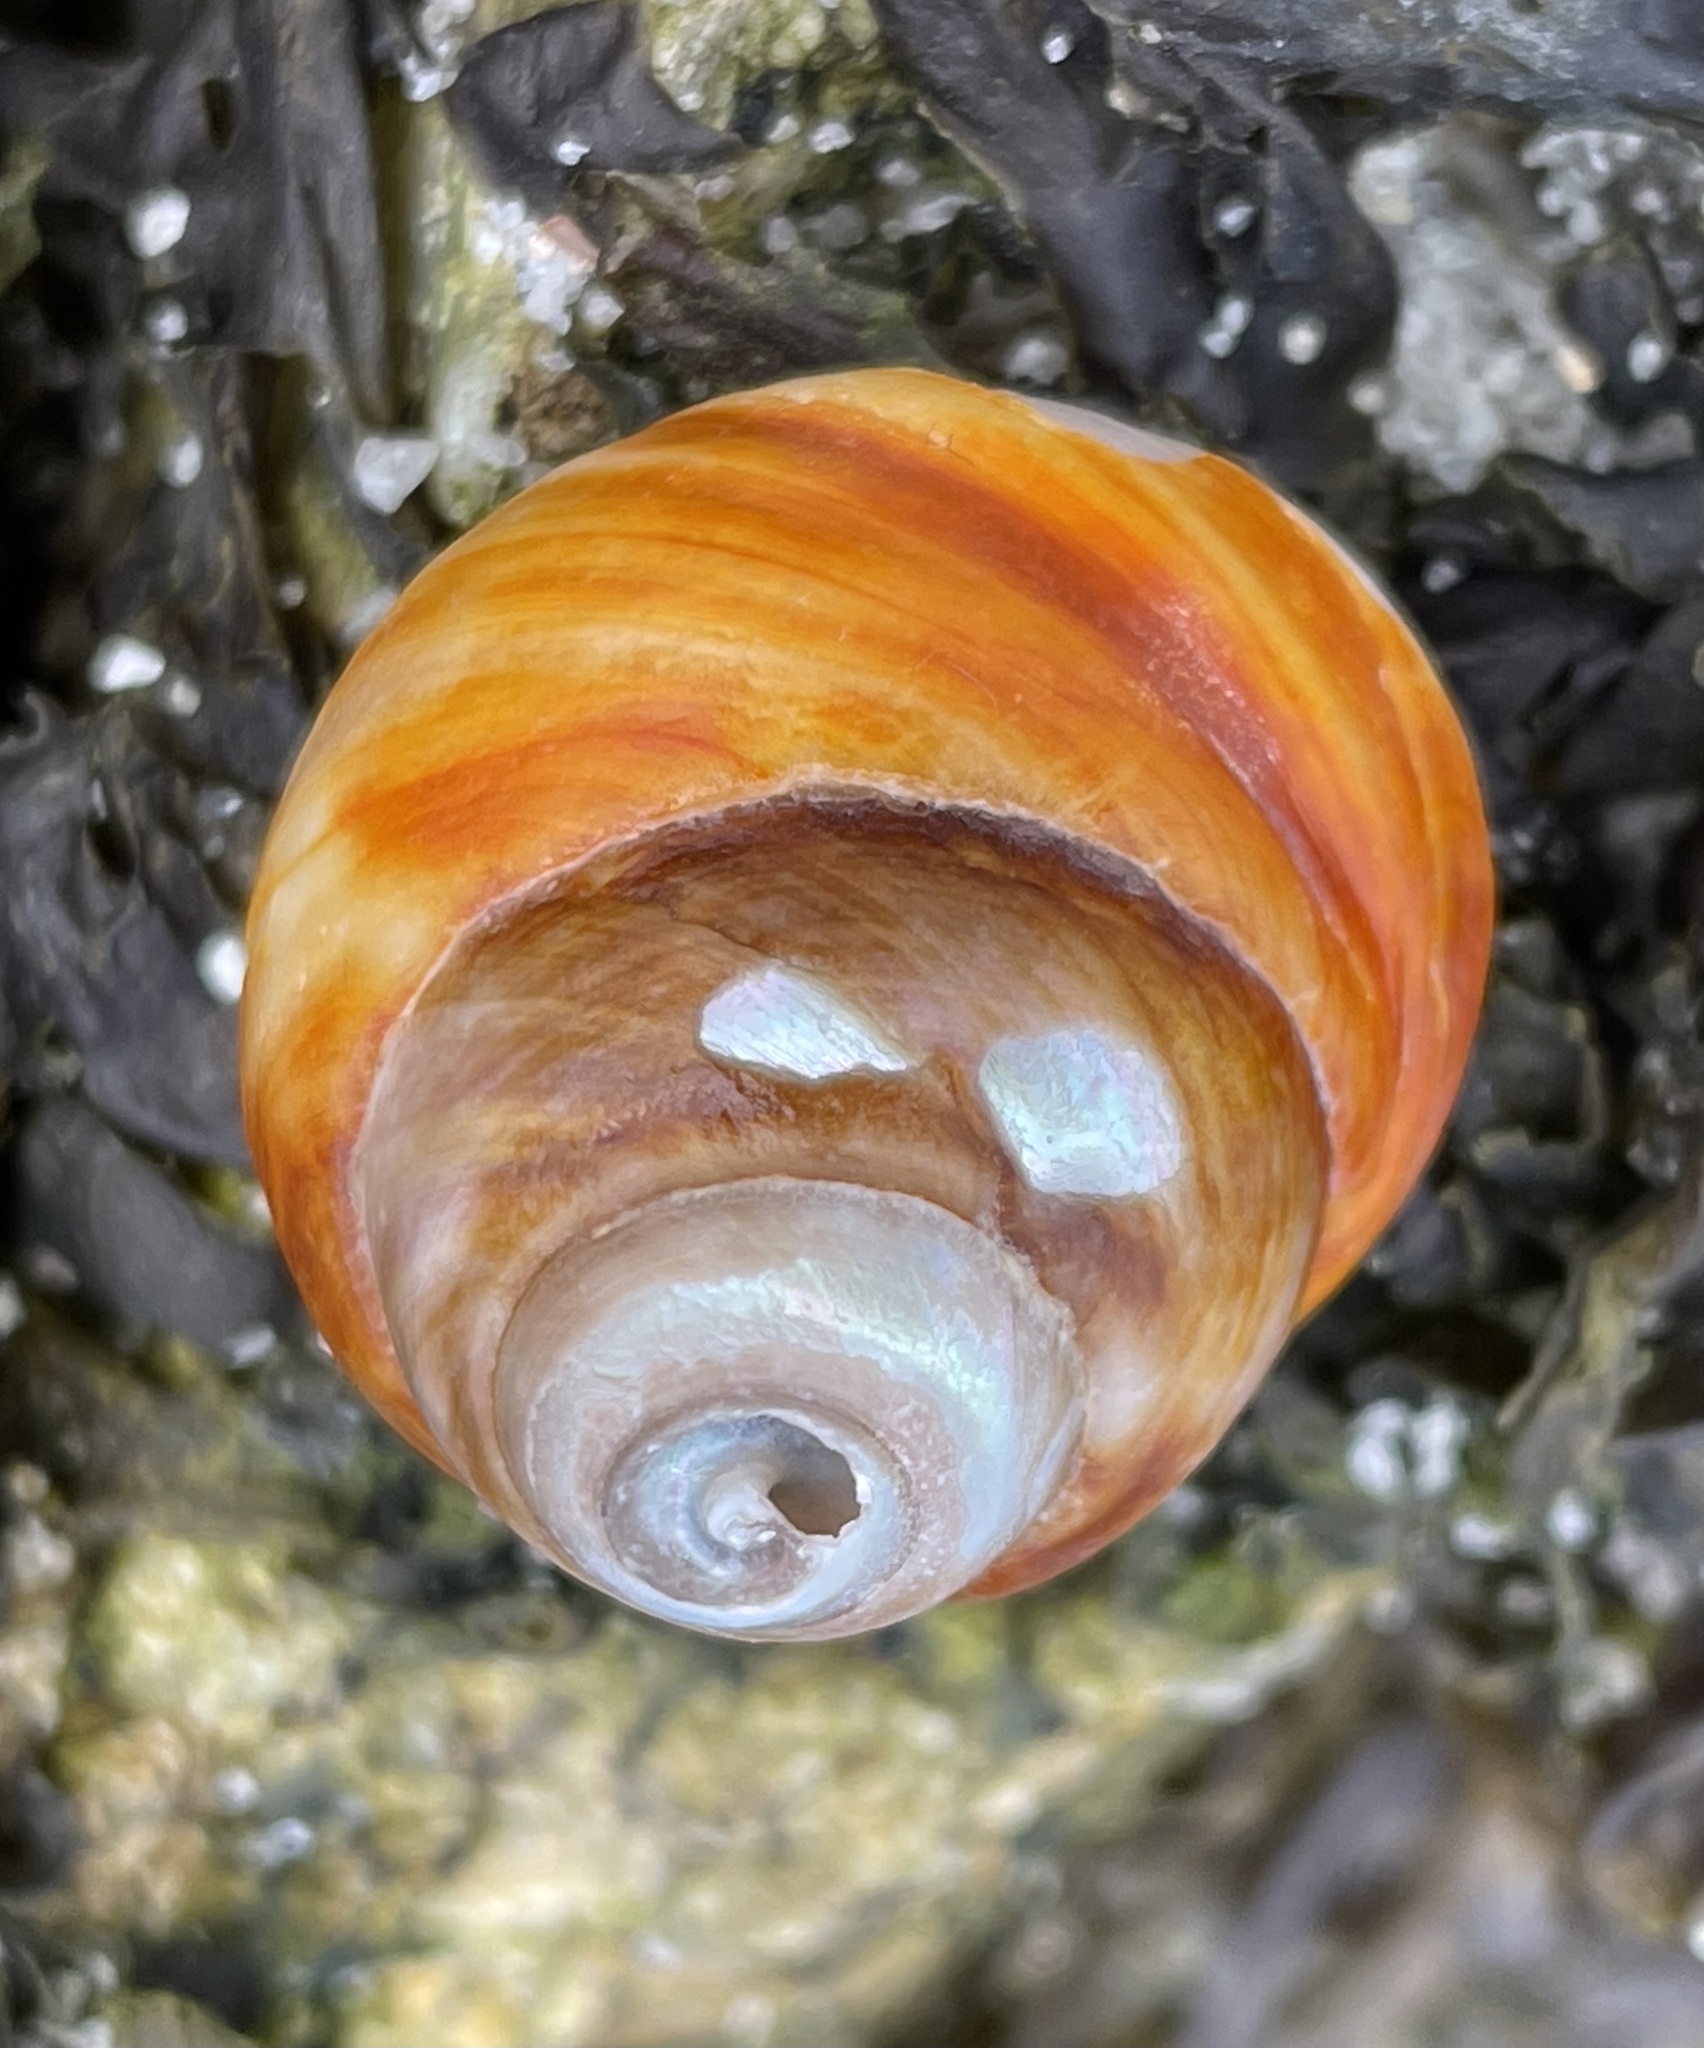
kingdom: Animalia
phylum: Mollusca
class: Gastropoda
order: Trochida
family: Tegulidae
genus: Tegula
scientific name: Tegula brunnea
